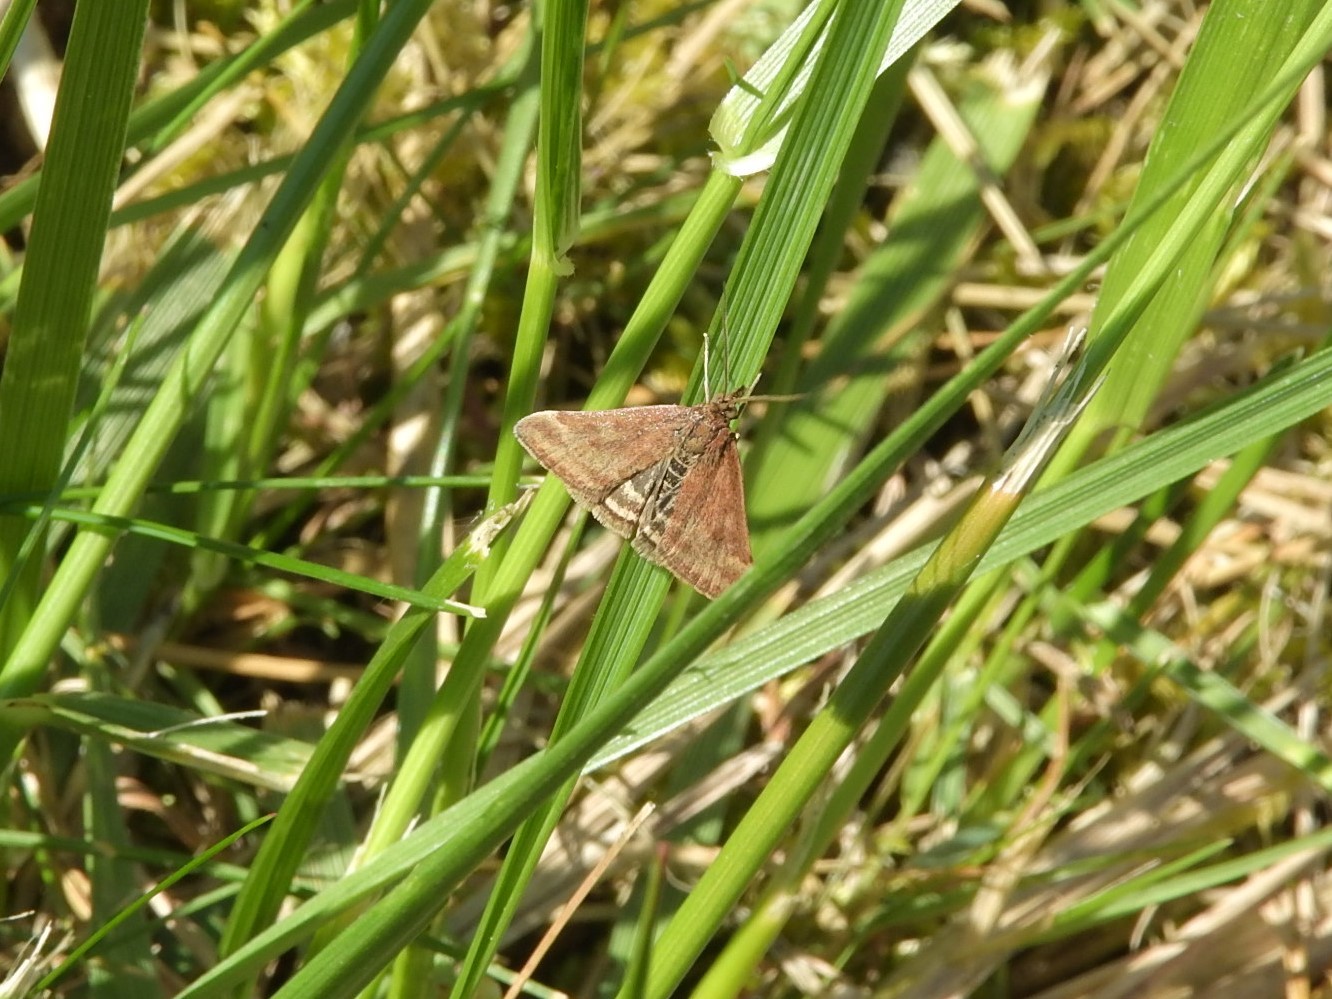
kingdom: Animalia
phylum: Arthropoda
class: Insecta
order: Lepidoptera
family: Crambidae
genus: Pyrausta
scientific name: Pyrausta despicata
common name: Straw-barred pearl
